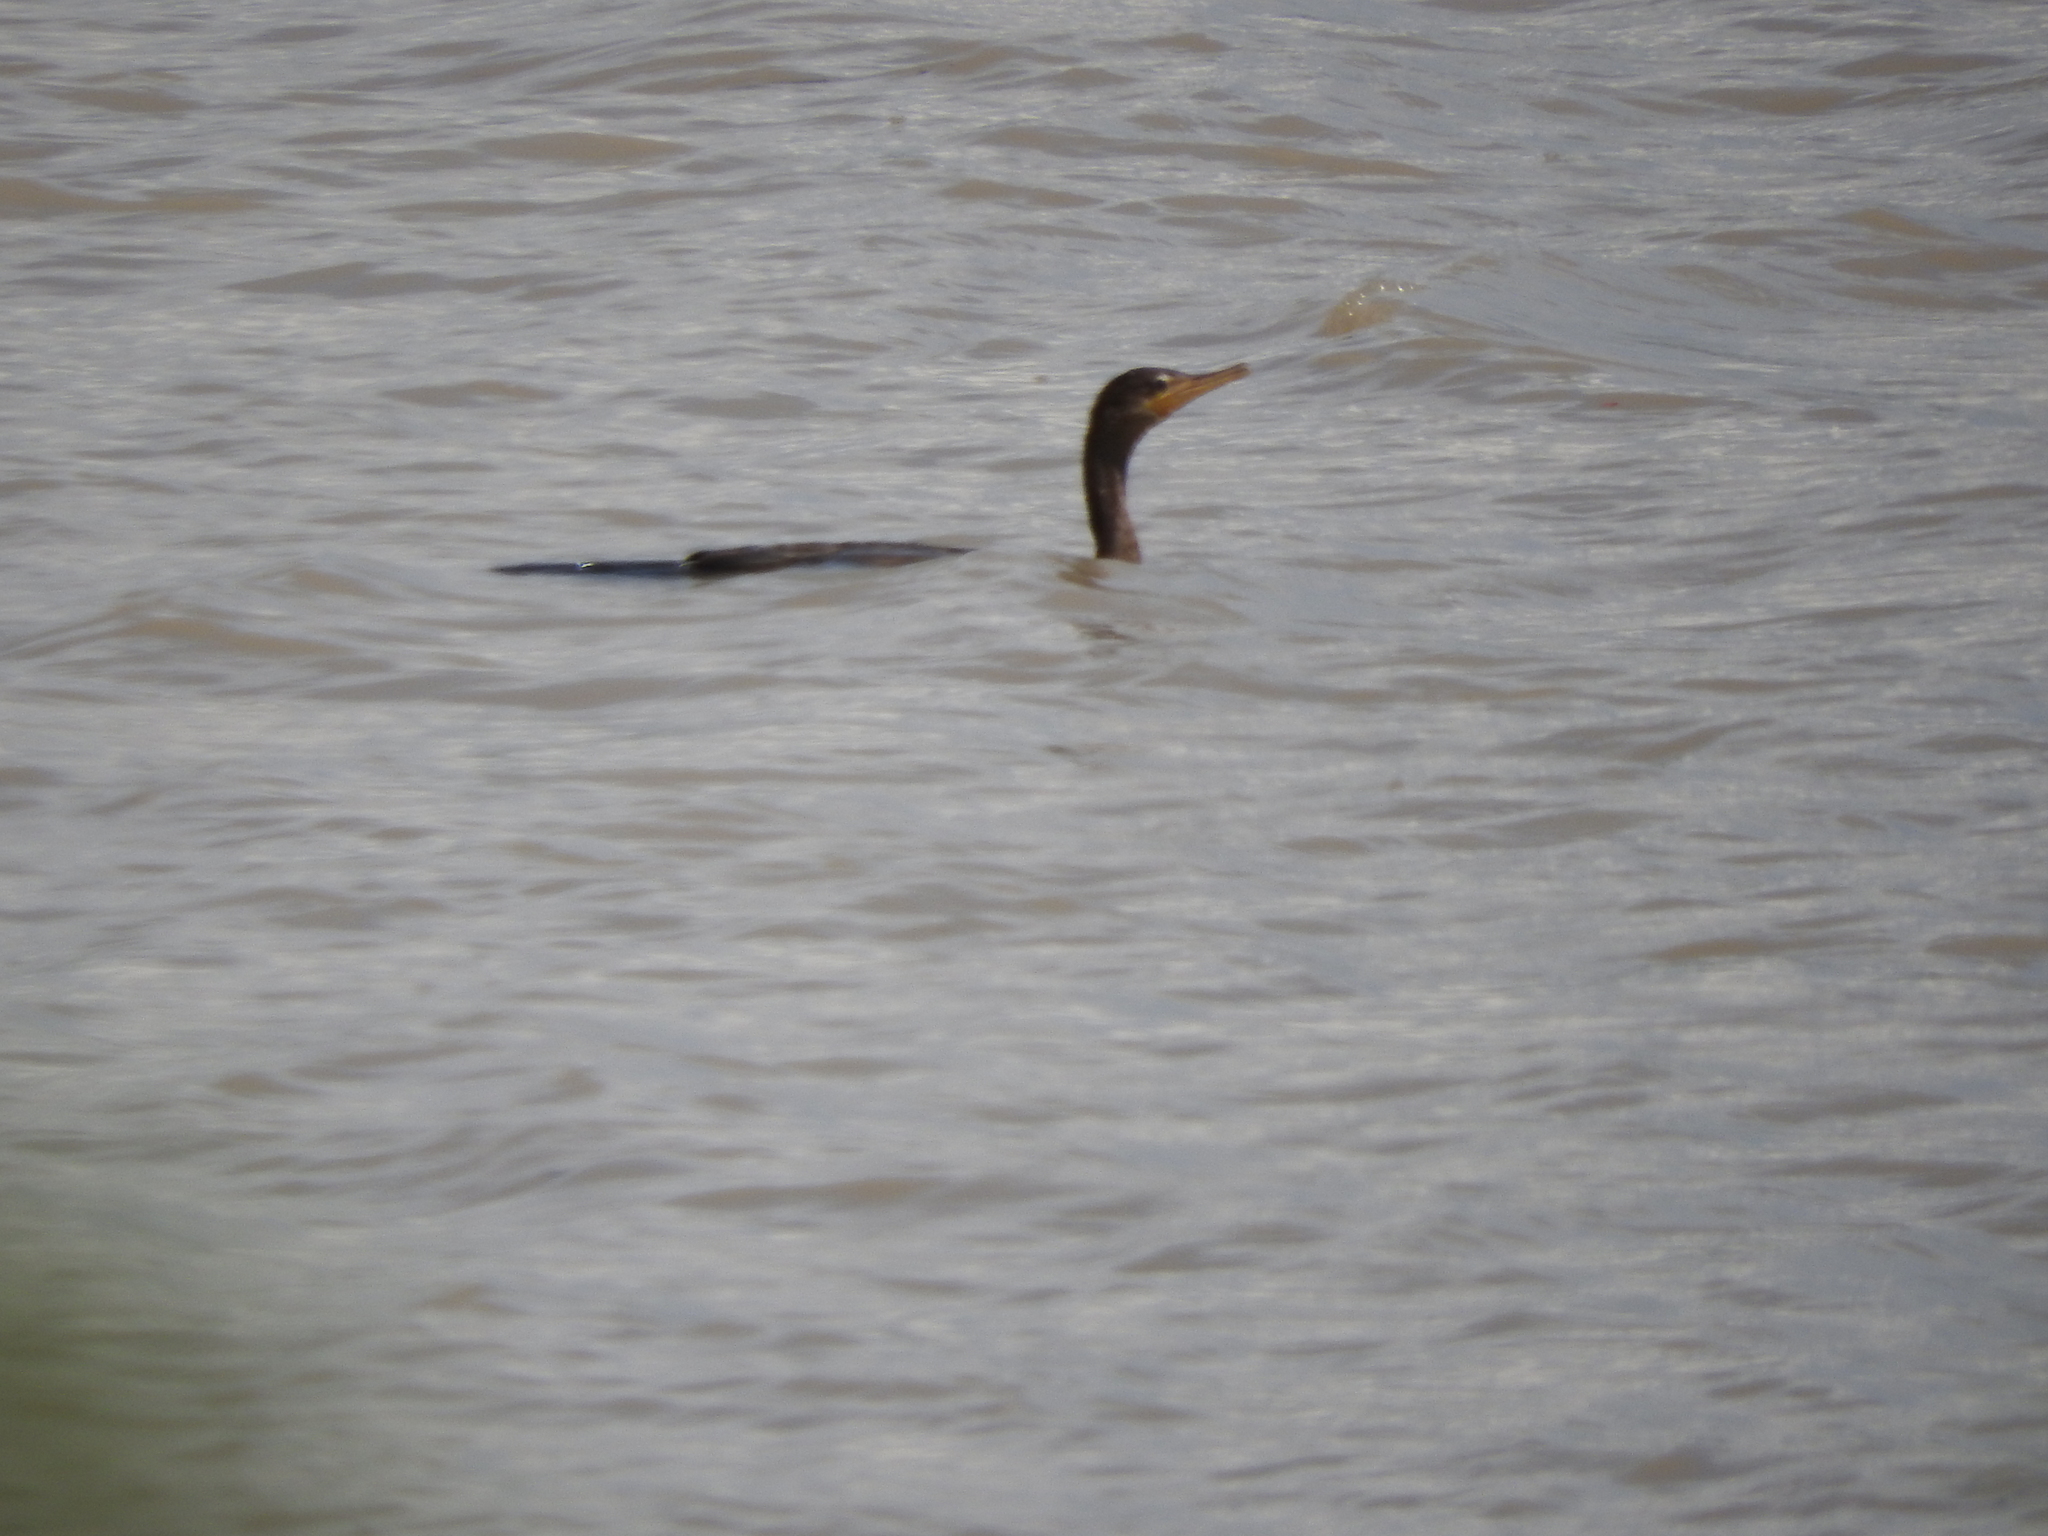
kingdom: Animalia
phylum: Chordata
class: Aves
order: Suliformes
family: Phalacrocoracidae
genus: Phalacrocorax
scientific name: Phalacrocorax brasilianus
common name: Neotropic cormorant
